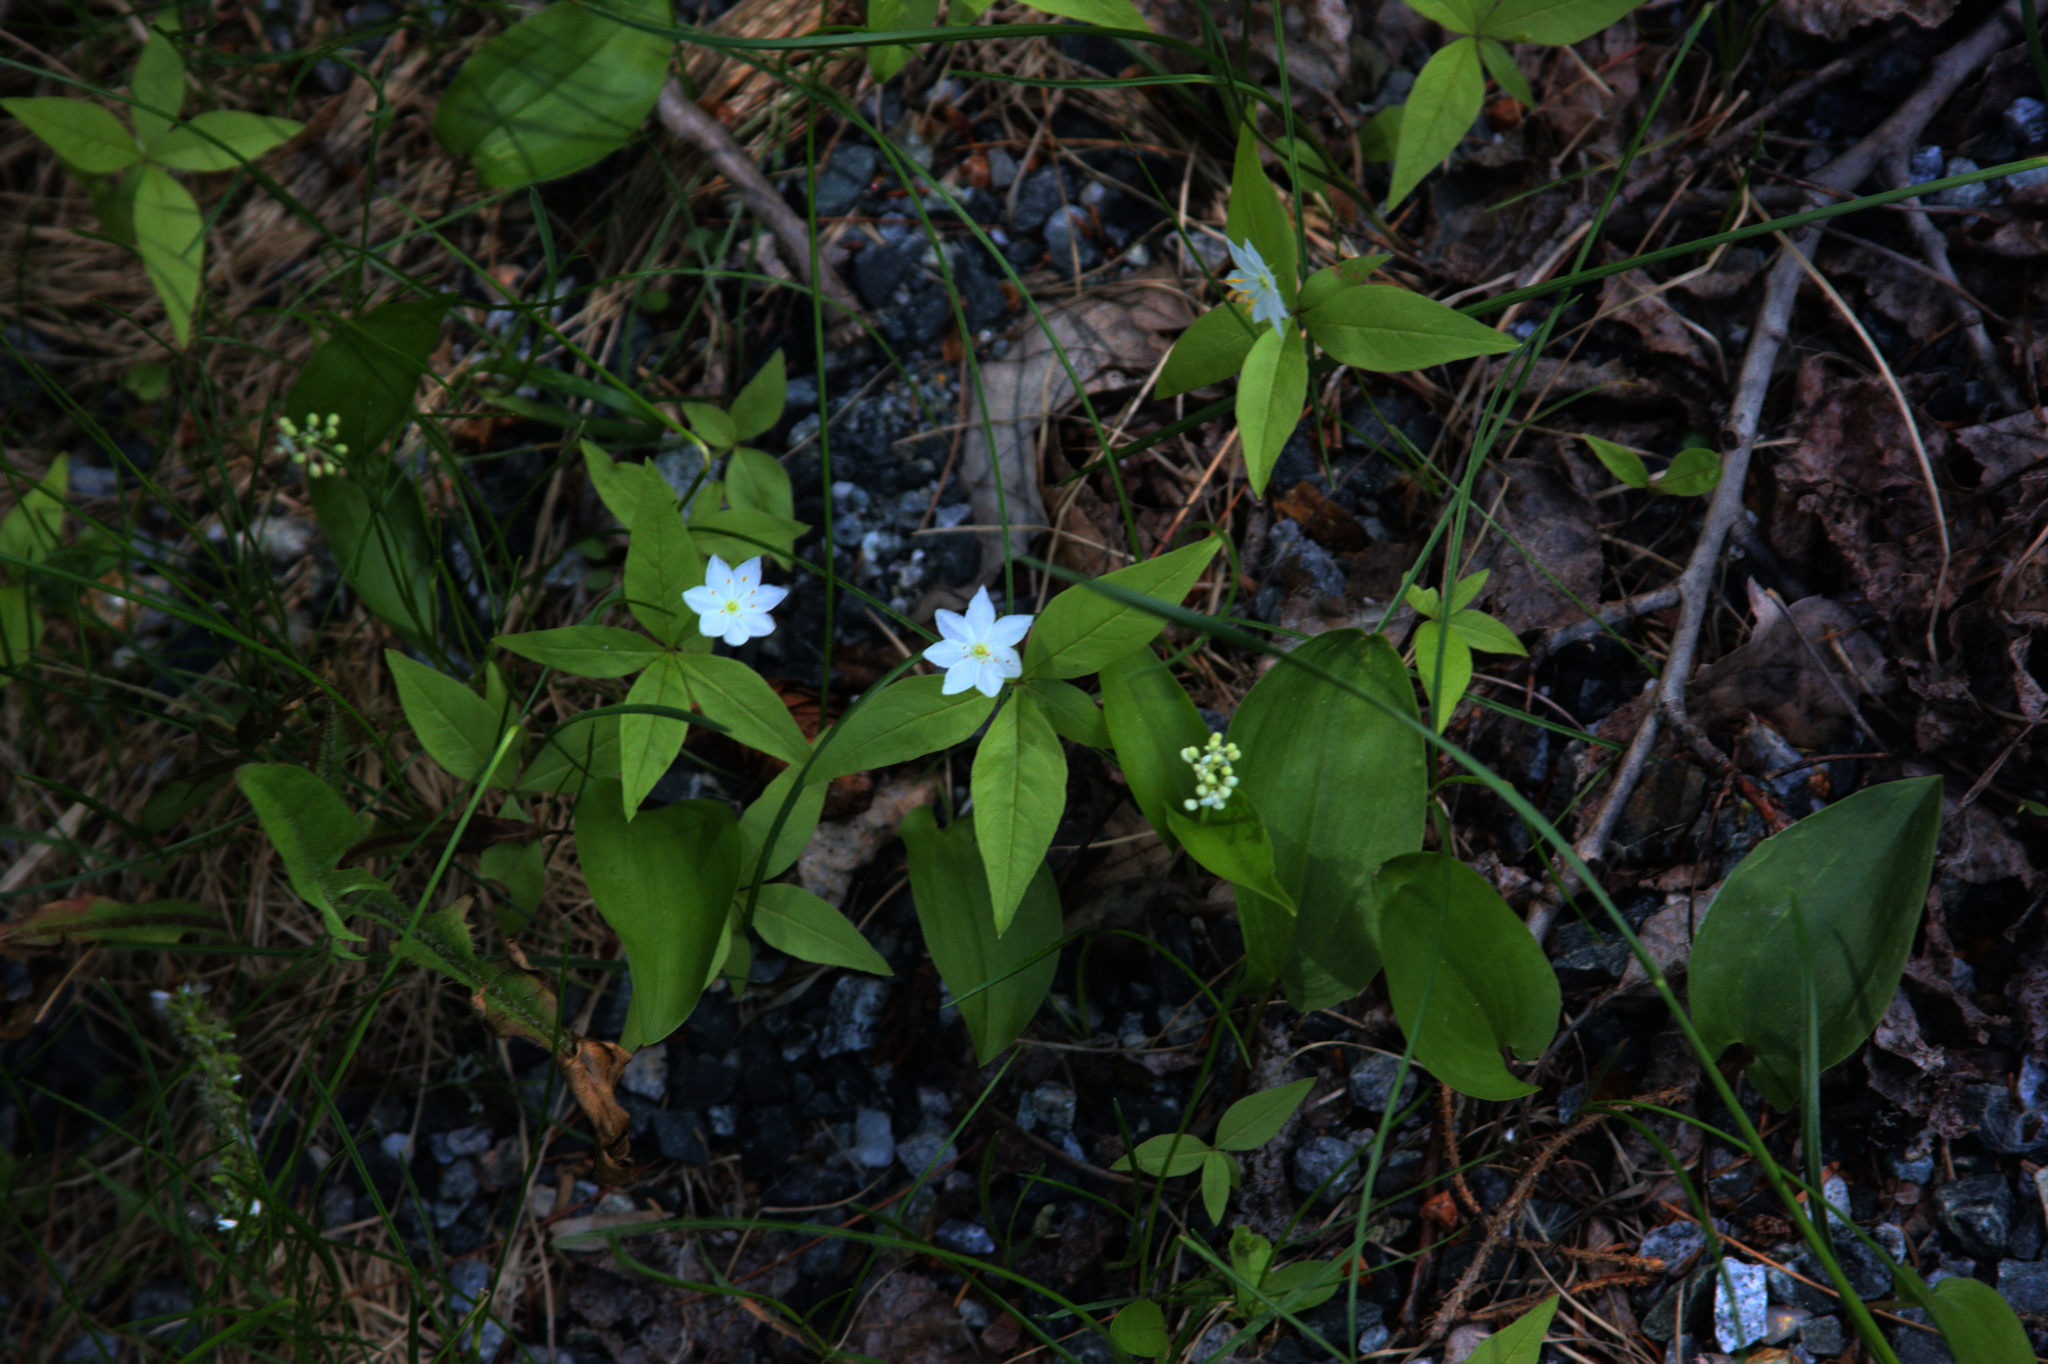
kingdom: Plantae
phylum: Tracheophyta
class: Magnoliopsida
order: Ericales
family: Primulaceae
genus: Lysimachia
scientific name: Lysimachia borealis
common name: American starflower
